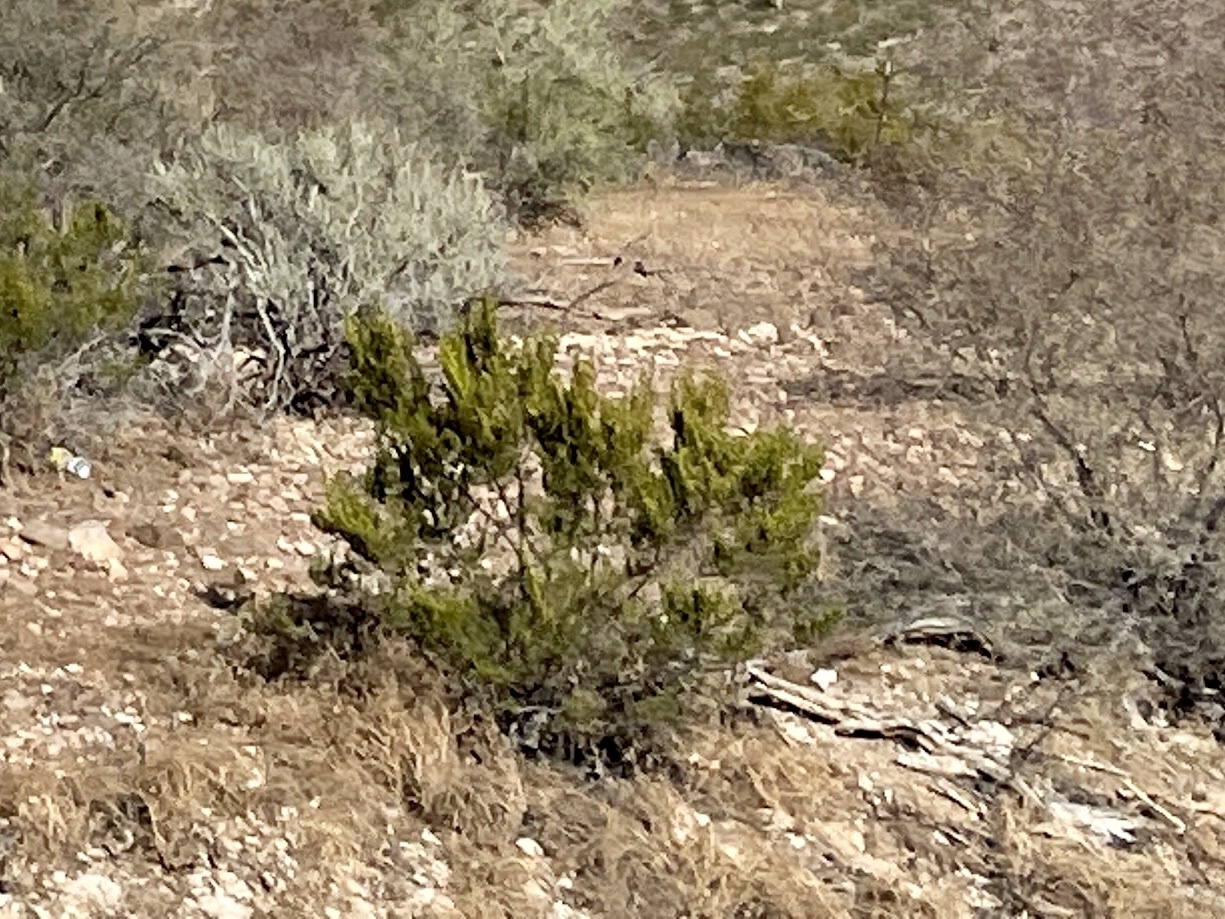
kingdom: Plantae
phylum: Tracheophyta
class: Magnoliopsida
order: Zygophyllales
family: Zygophyllaceae
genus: Larrea
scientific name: Larrea tridentata
